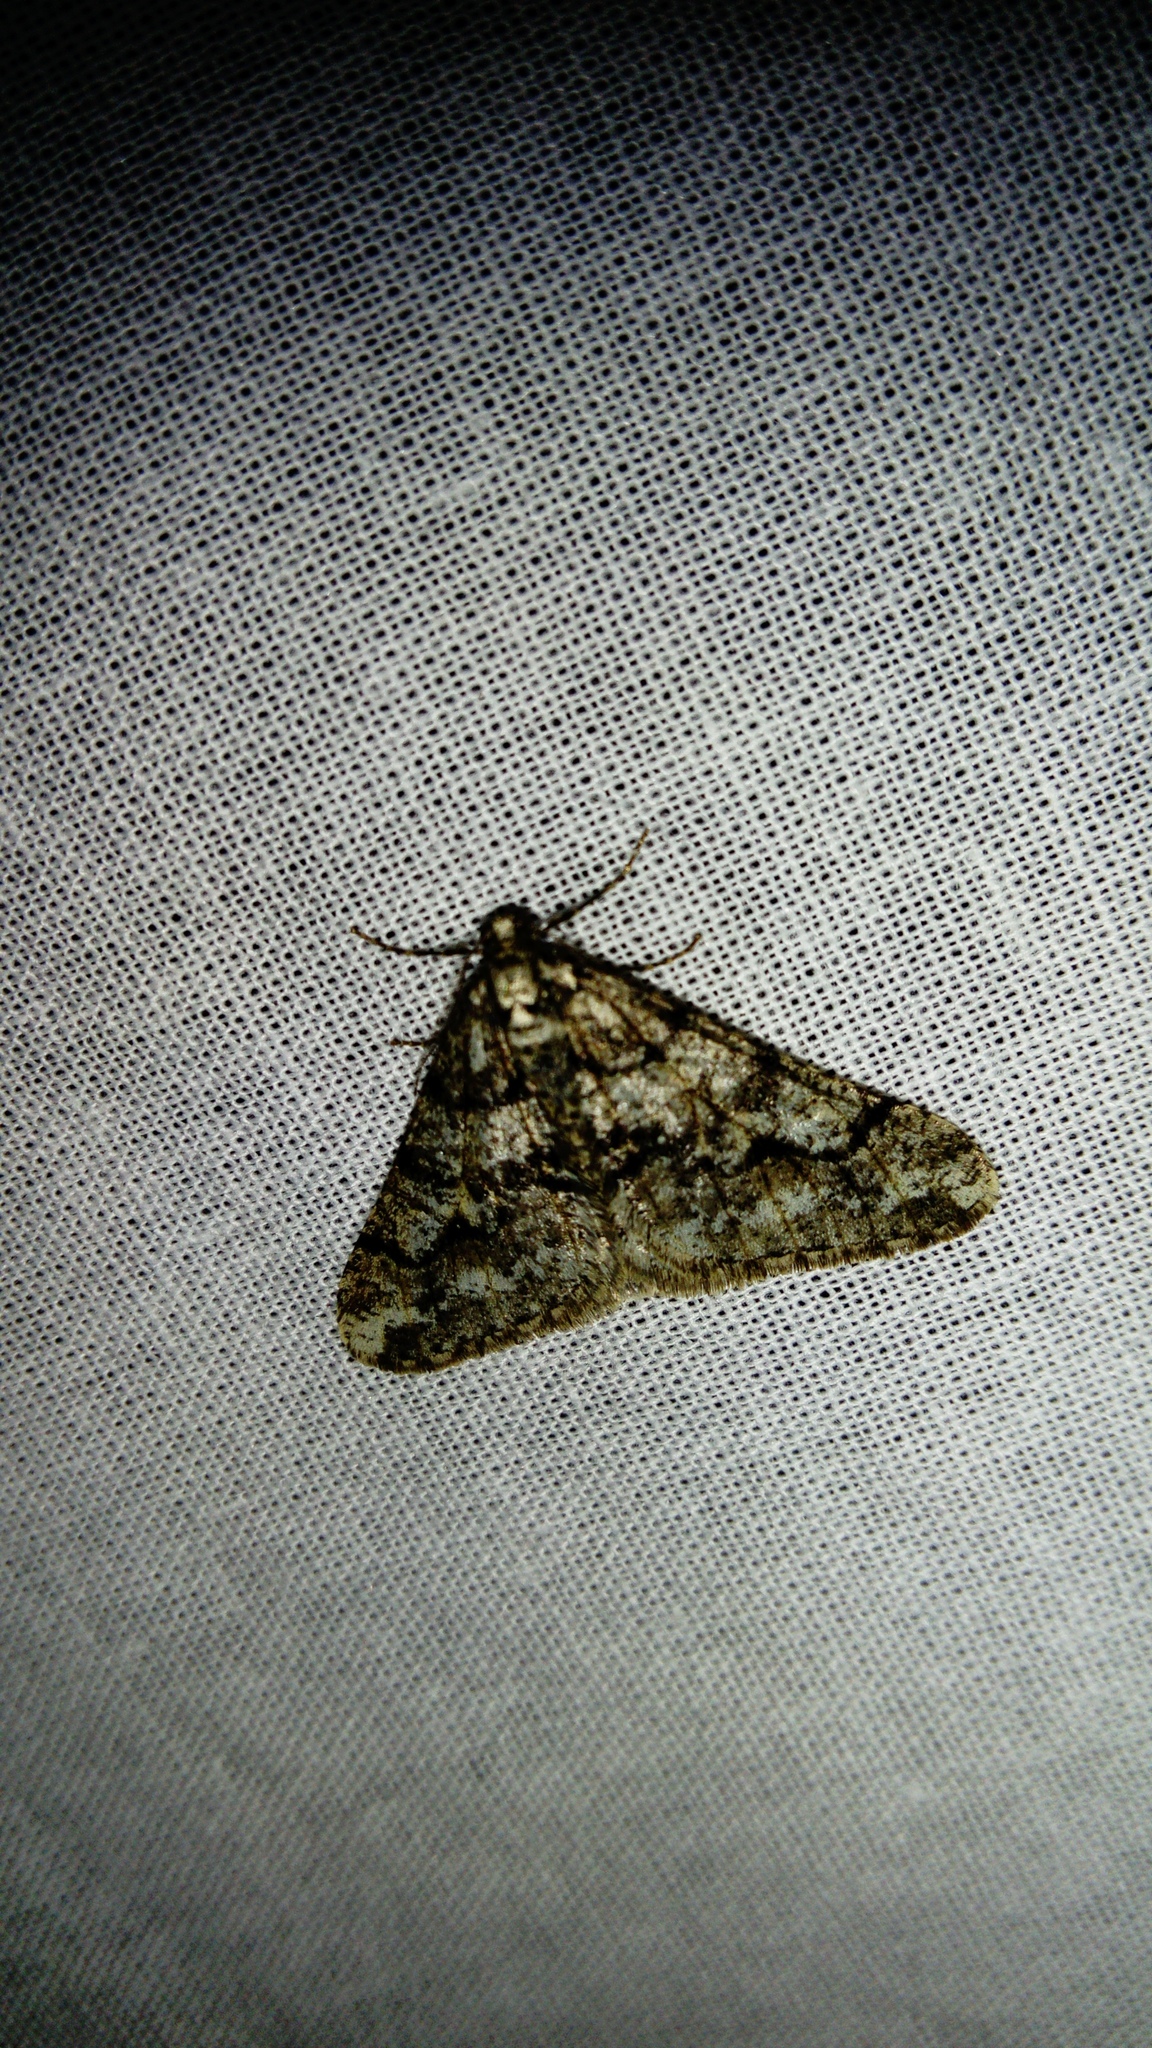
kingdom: Animalia
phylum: Arthropoda
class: Insecta
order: Lepidoptera
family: Geometridae
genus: Agriopis
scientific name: Agriopis leucophaearia
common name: Spring usher
